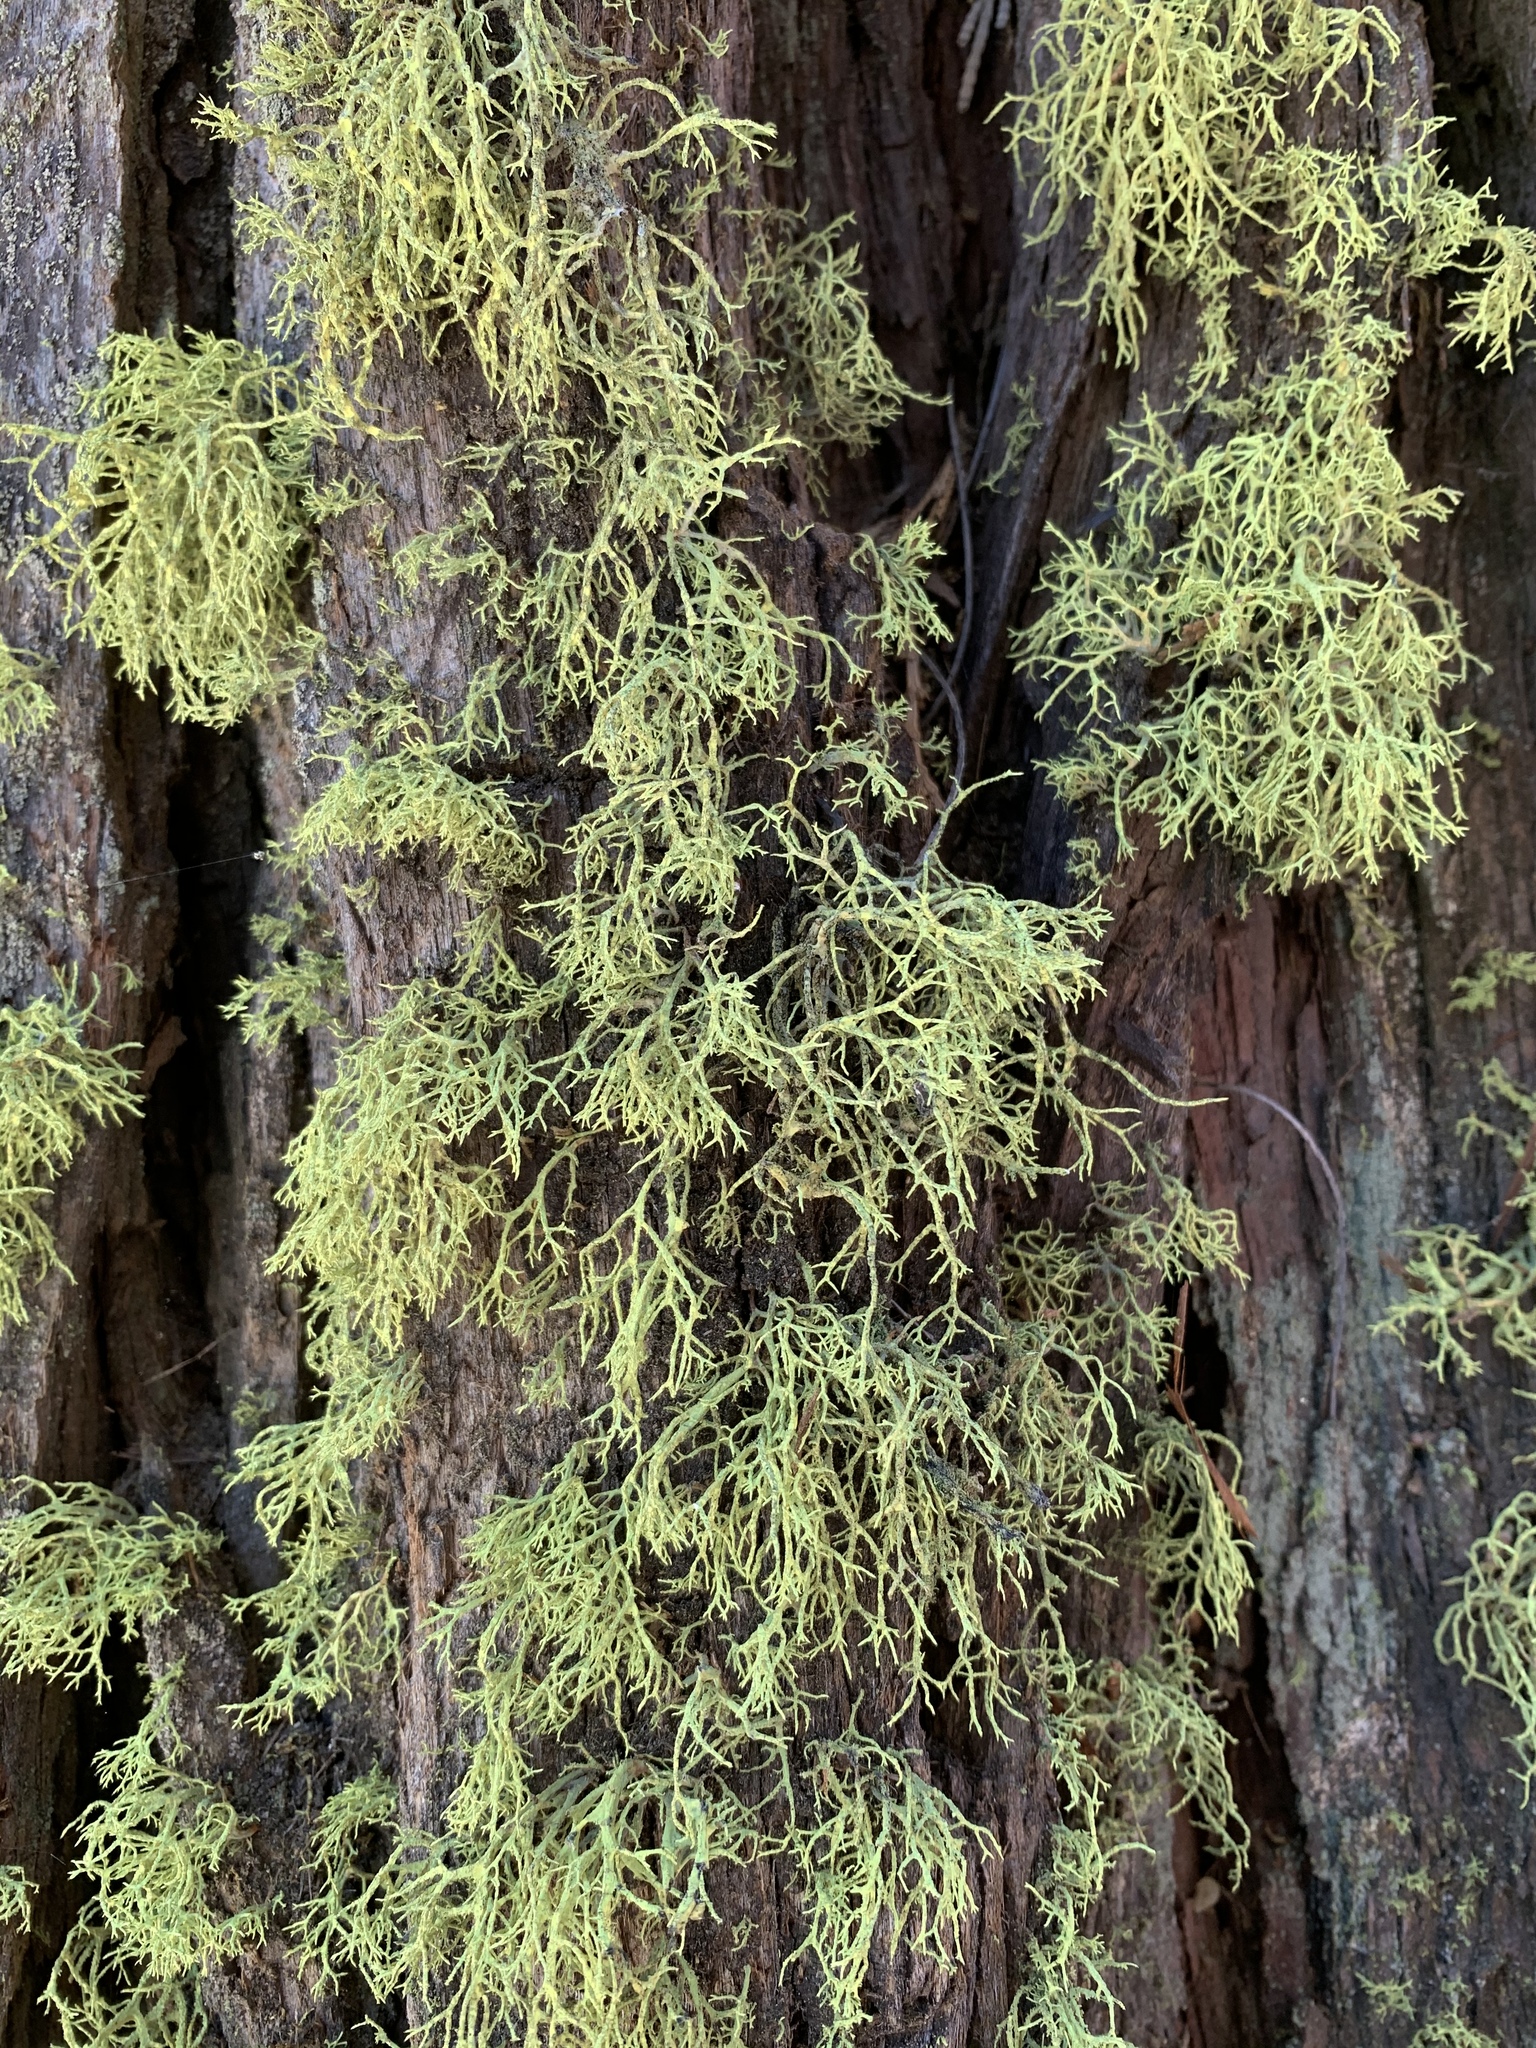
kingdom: Fungi
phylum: Ascomycota
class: Lecanoromycetes
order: Lecanorales
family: Parmeliaceae
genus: Letharia
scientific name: Letharia vulpina
